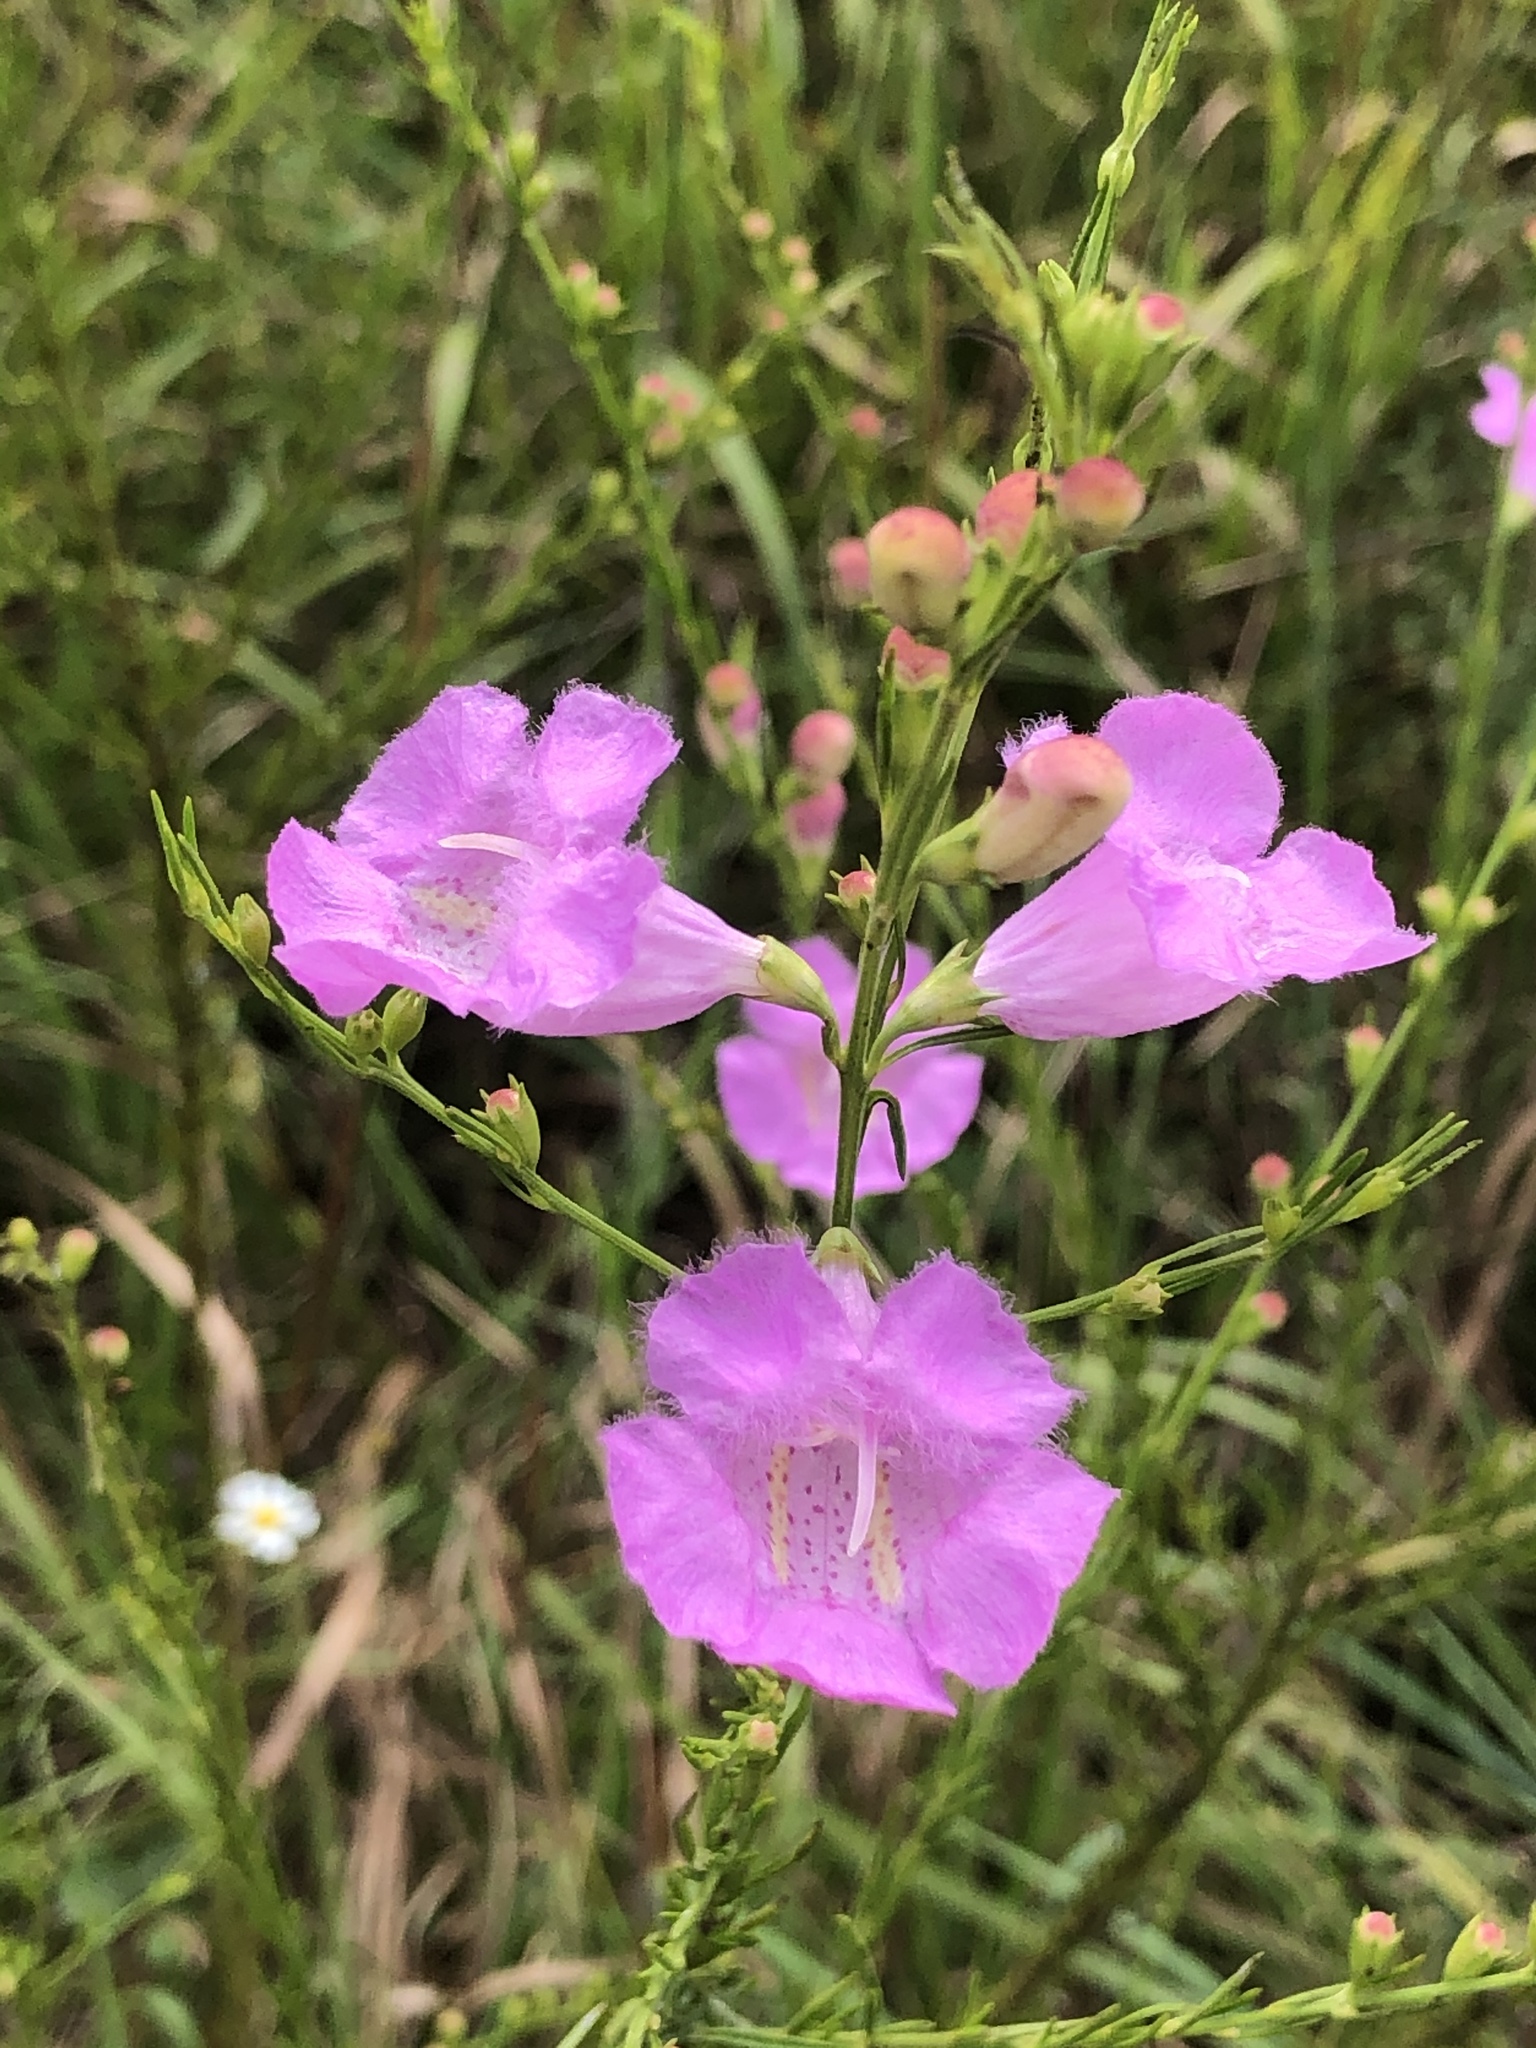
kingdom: Plantae
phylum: Tracheophyta
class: Magnoliopsida
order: Lamiales
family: Orobanchaceae
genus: Agalinis
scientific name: Agalinis fasciculata
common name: Beach false foxglove
